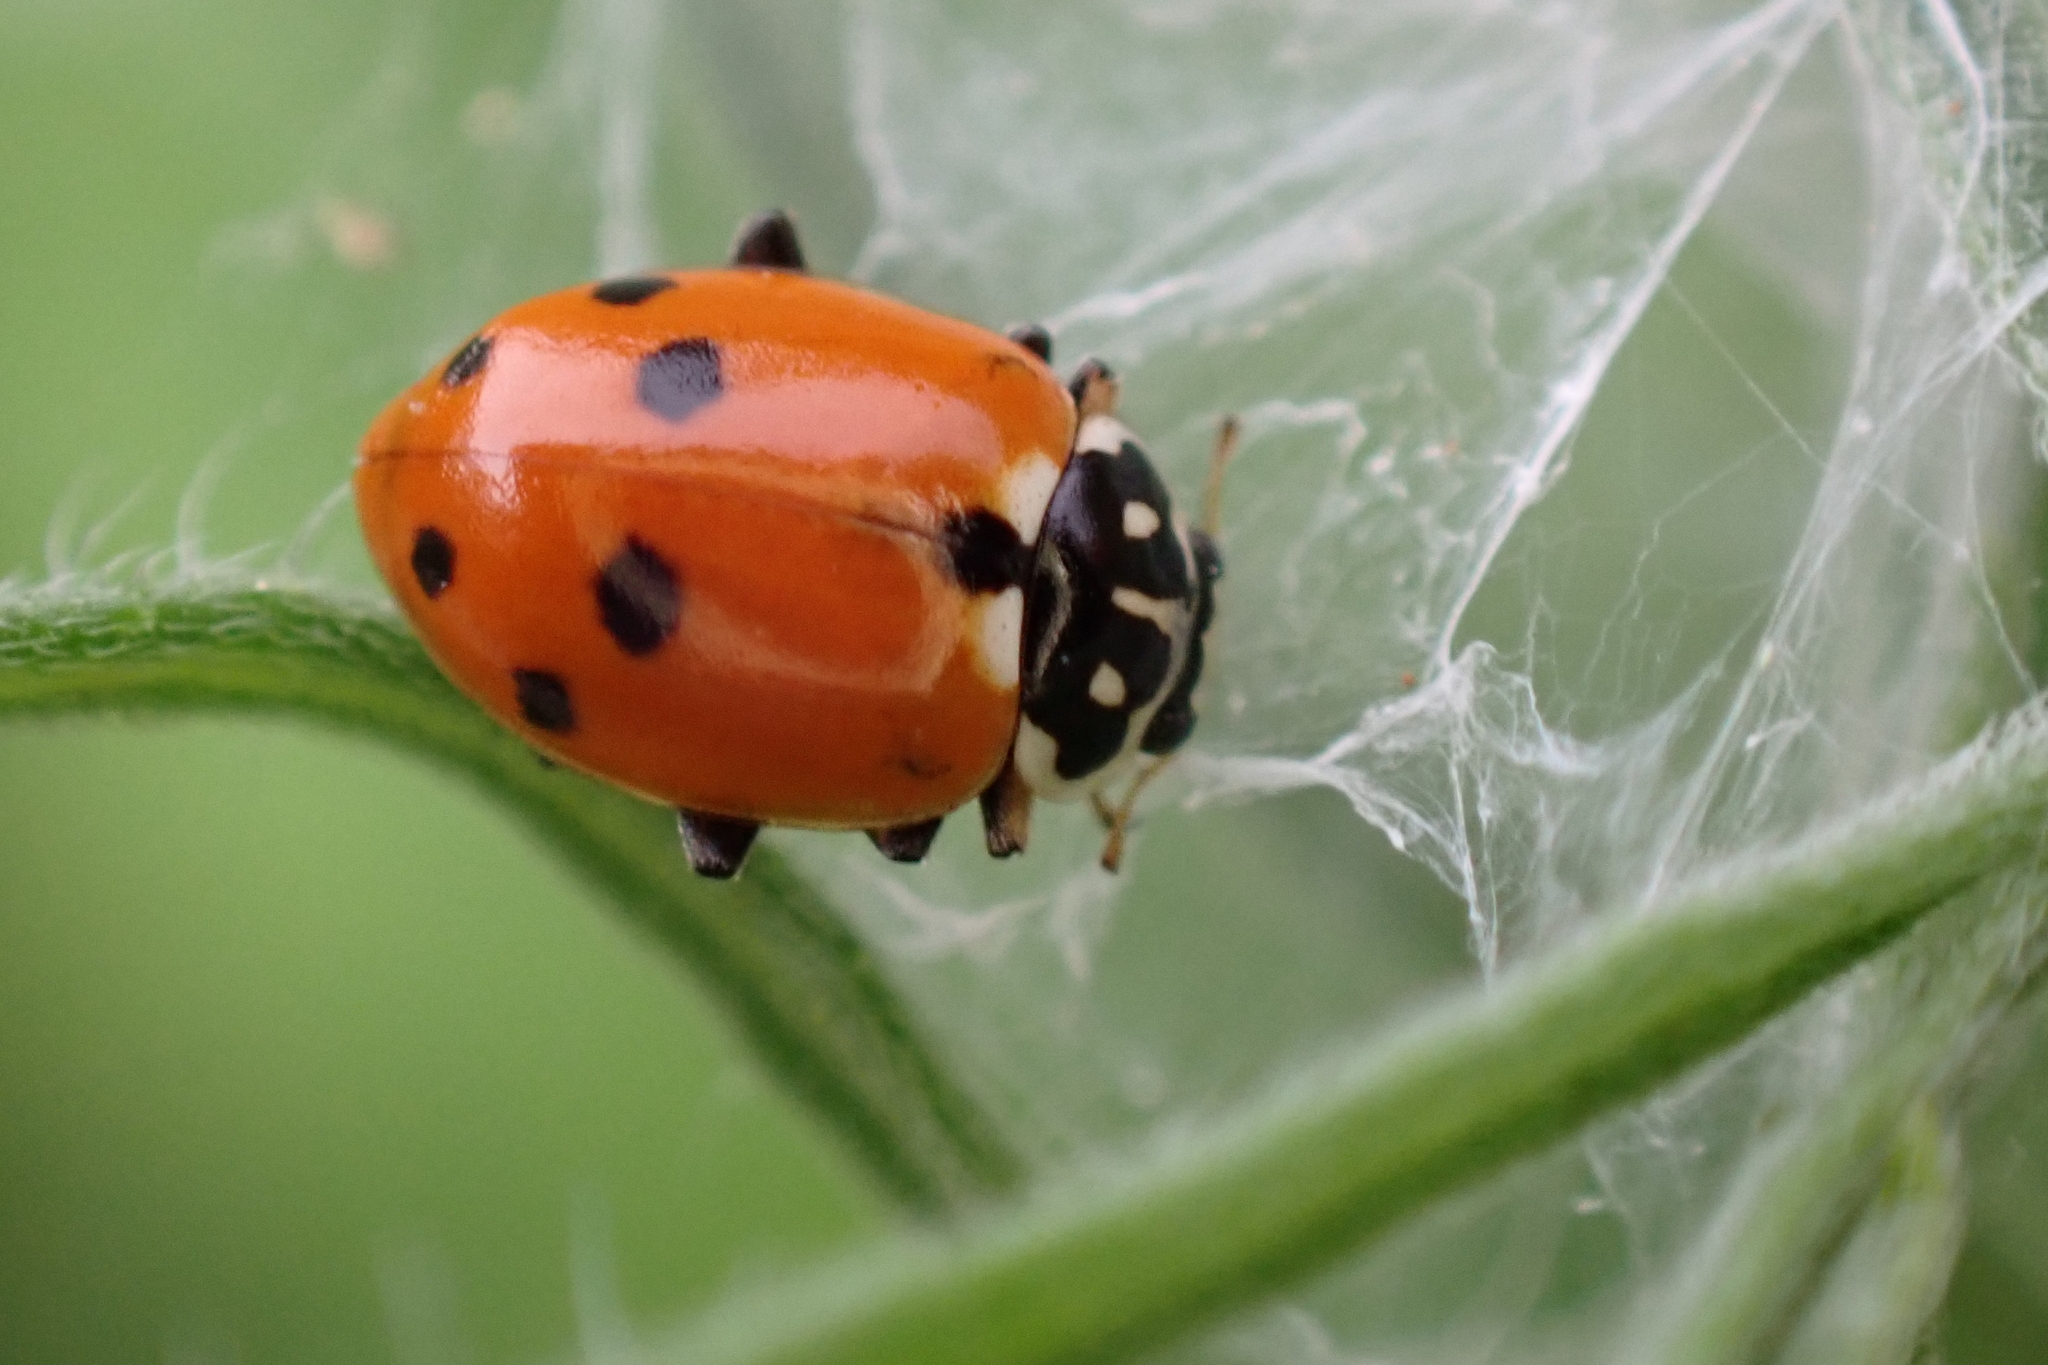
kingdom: Animalia
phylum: Arthropoda
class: Insecta
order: Coleoptera
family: Coccinellidae
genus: Hippodamia
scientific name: Hippodamia variegata
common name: Ladybird beetle
